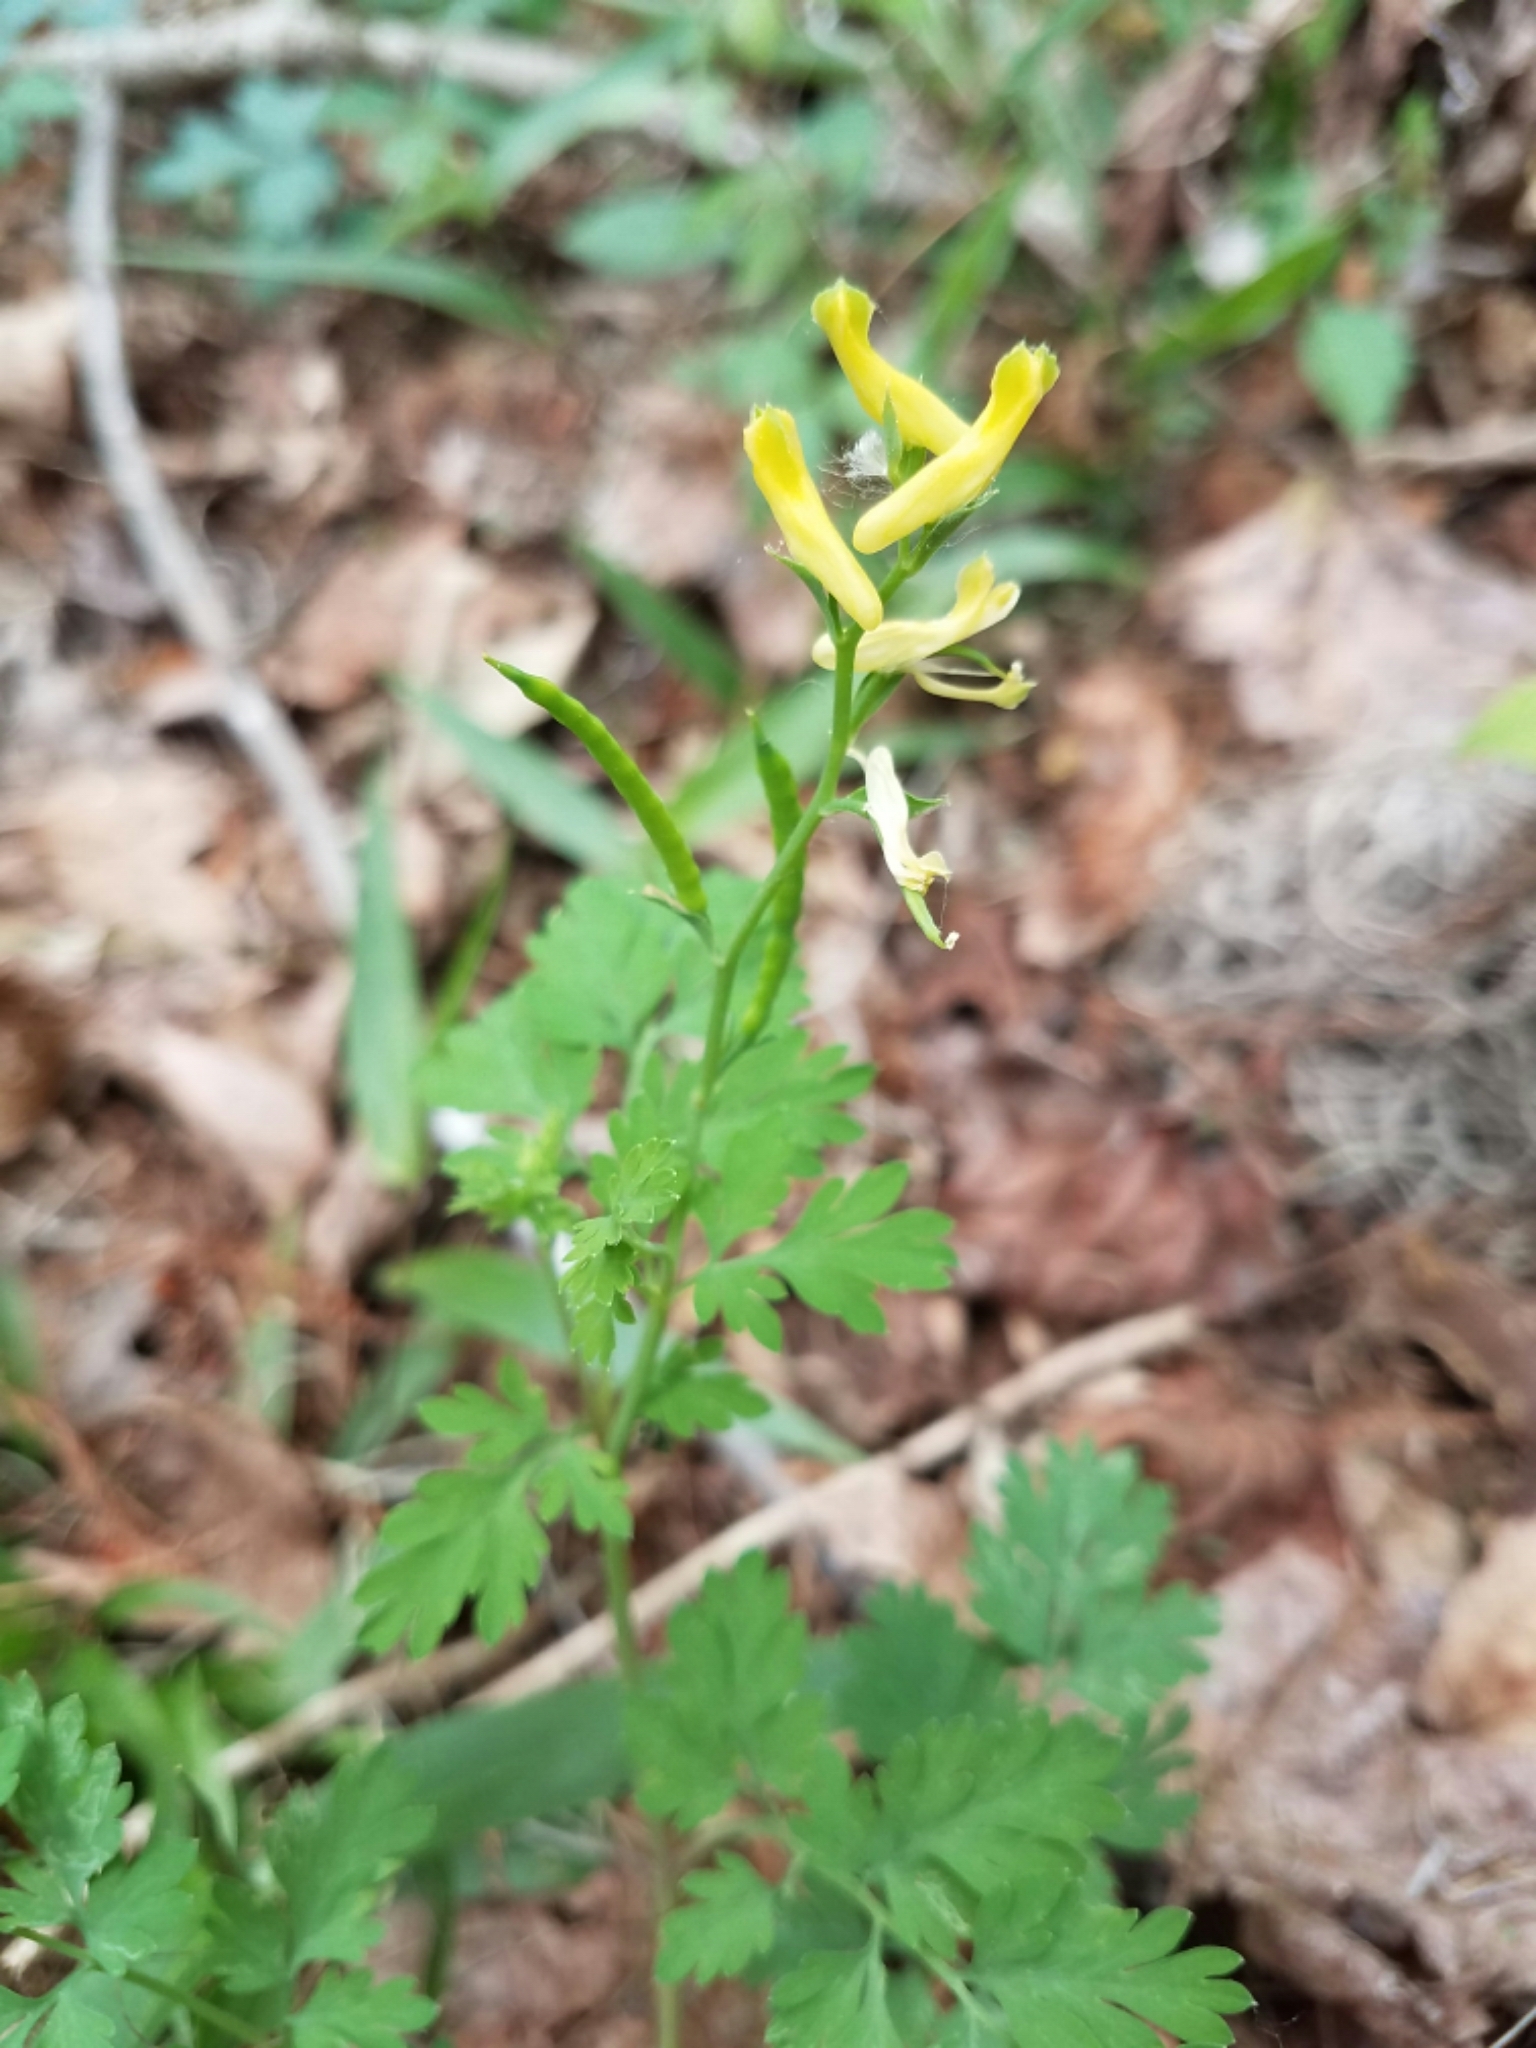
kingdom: Plantae
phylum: Tracheophyta
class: Magnoliopsida
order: Ranunculales
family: Papaveraceae
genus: Corydalis
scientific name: Corydalis micrantha
